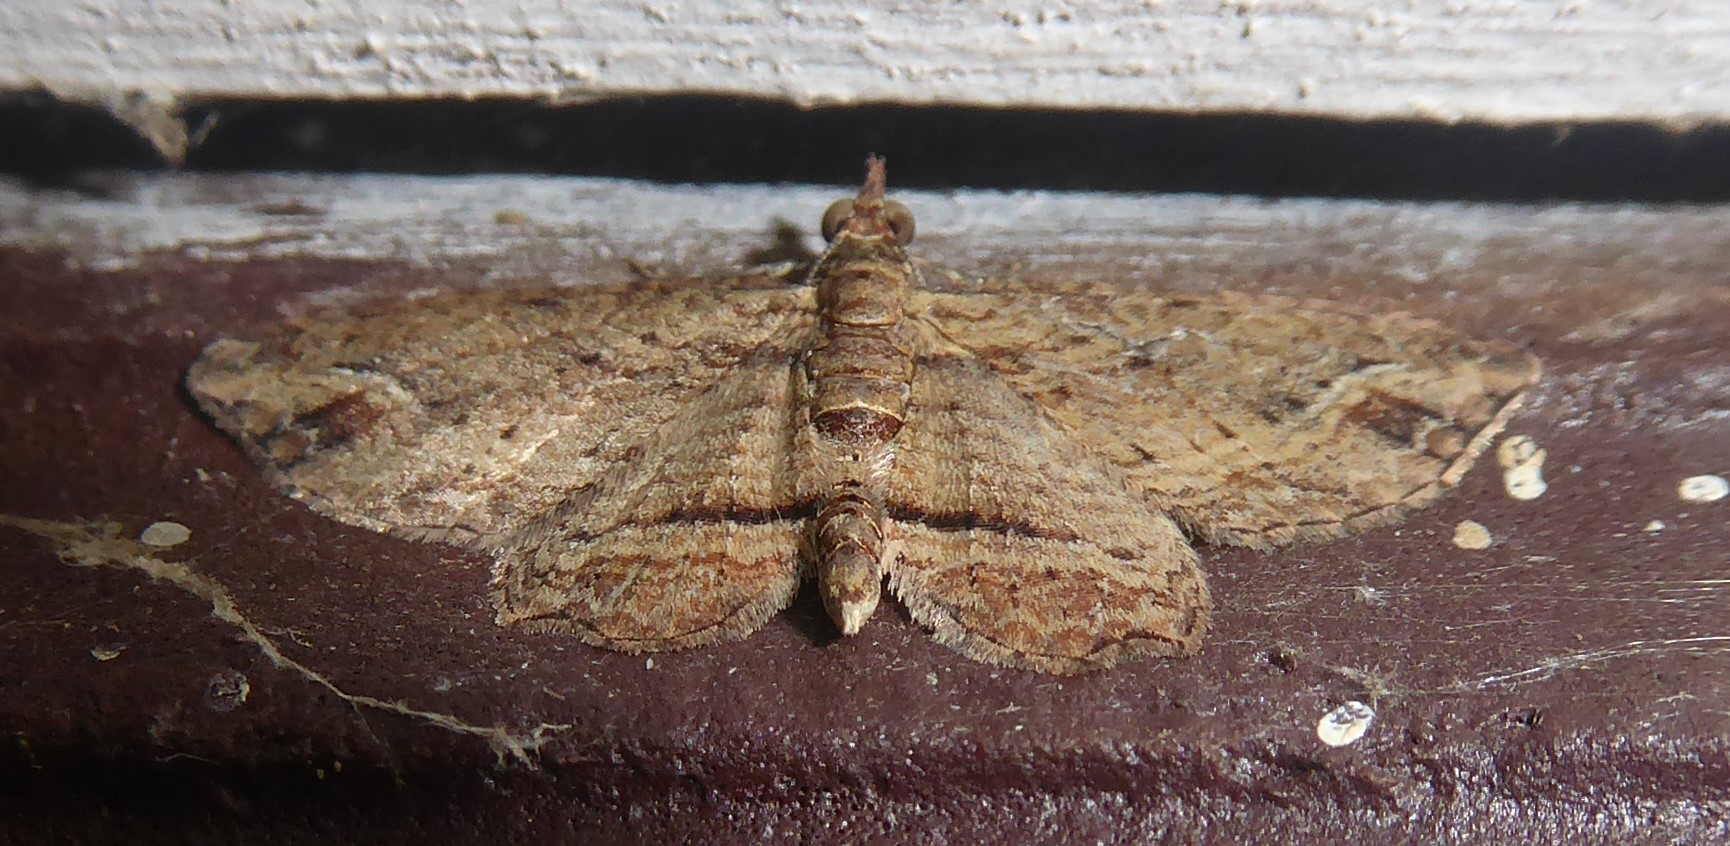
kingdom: Animalia
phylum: Arthropoda
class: Insecta
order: Lepidoptera
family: Geometridae
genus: Chloroclystis
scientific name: Chloroclystis filata
